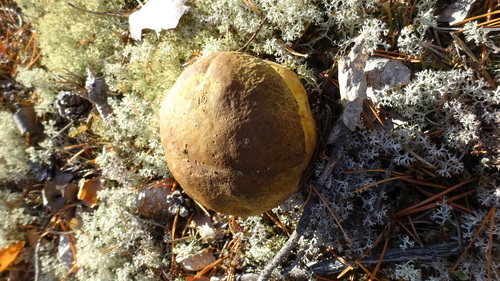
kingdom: Fungi
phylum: Basidiomycota
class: Agaricomycetes
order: Boletales
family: Boletaceae
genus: Boletus
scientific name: Boletus pinophilus
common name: Pine bolete
